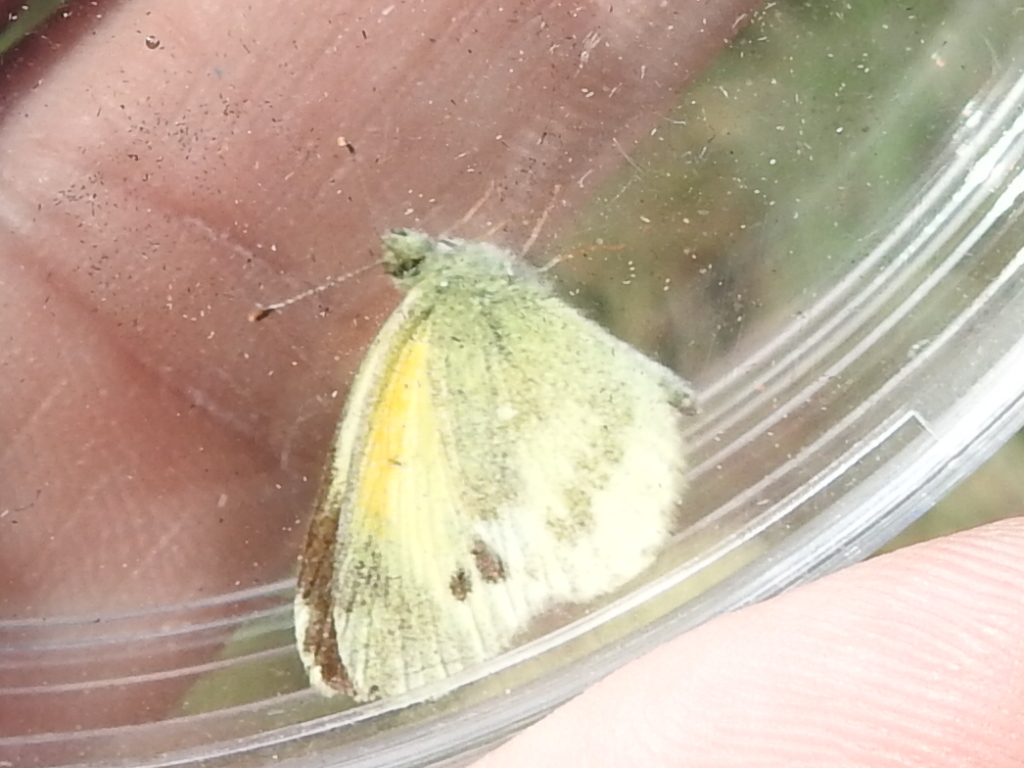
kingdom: Animalia
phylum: Arthropoda
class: Insecta
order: Lepidoptera
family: Pieridae
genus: Nathalis
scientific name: Nathalis iole
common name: Dainty sulphur
